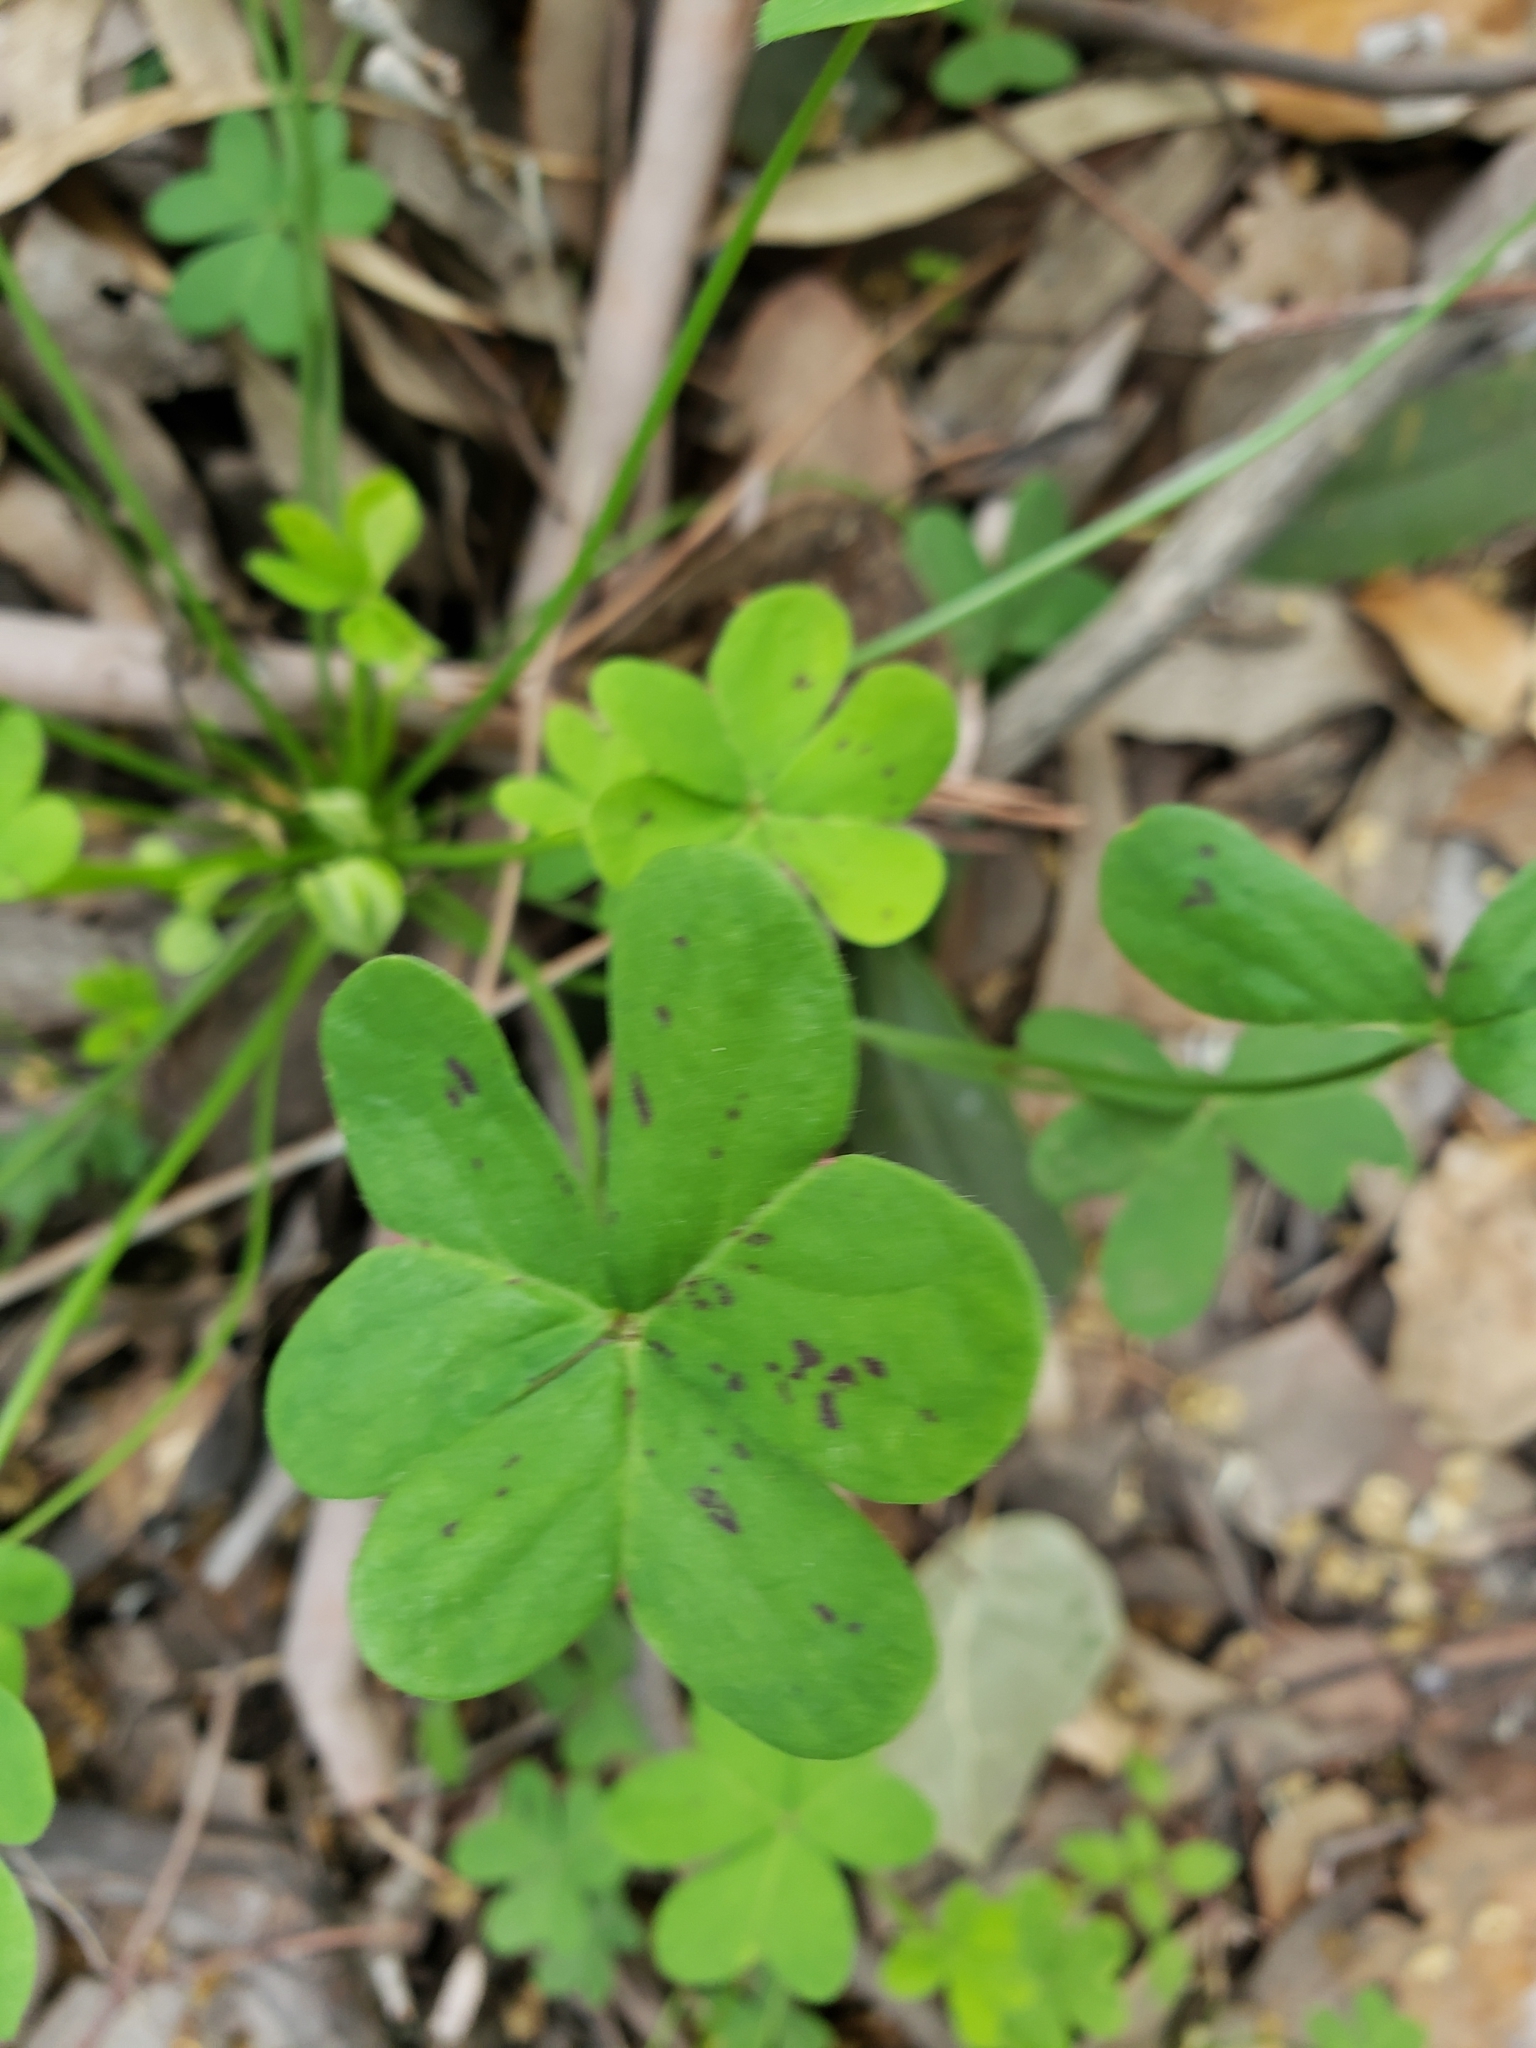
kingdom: Plantae
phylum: Tracheophyta
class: Magnoliopsida
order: Oxalidales
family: Oxalidaceae
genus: Oxalis
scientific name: Oxalis pes-caprae
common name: Bermuda-buttercup
